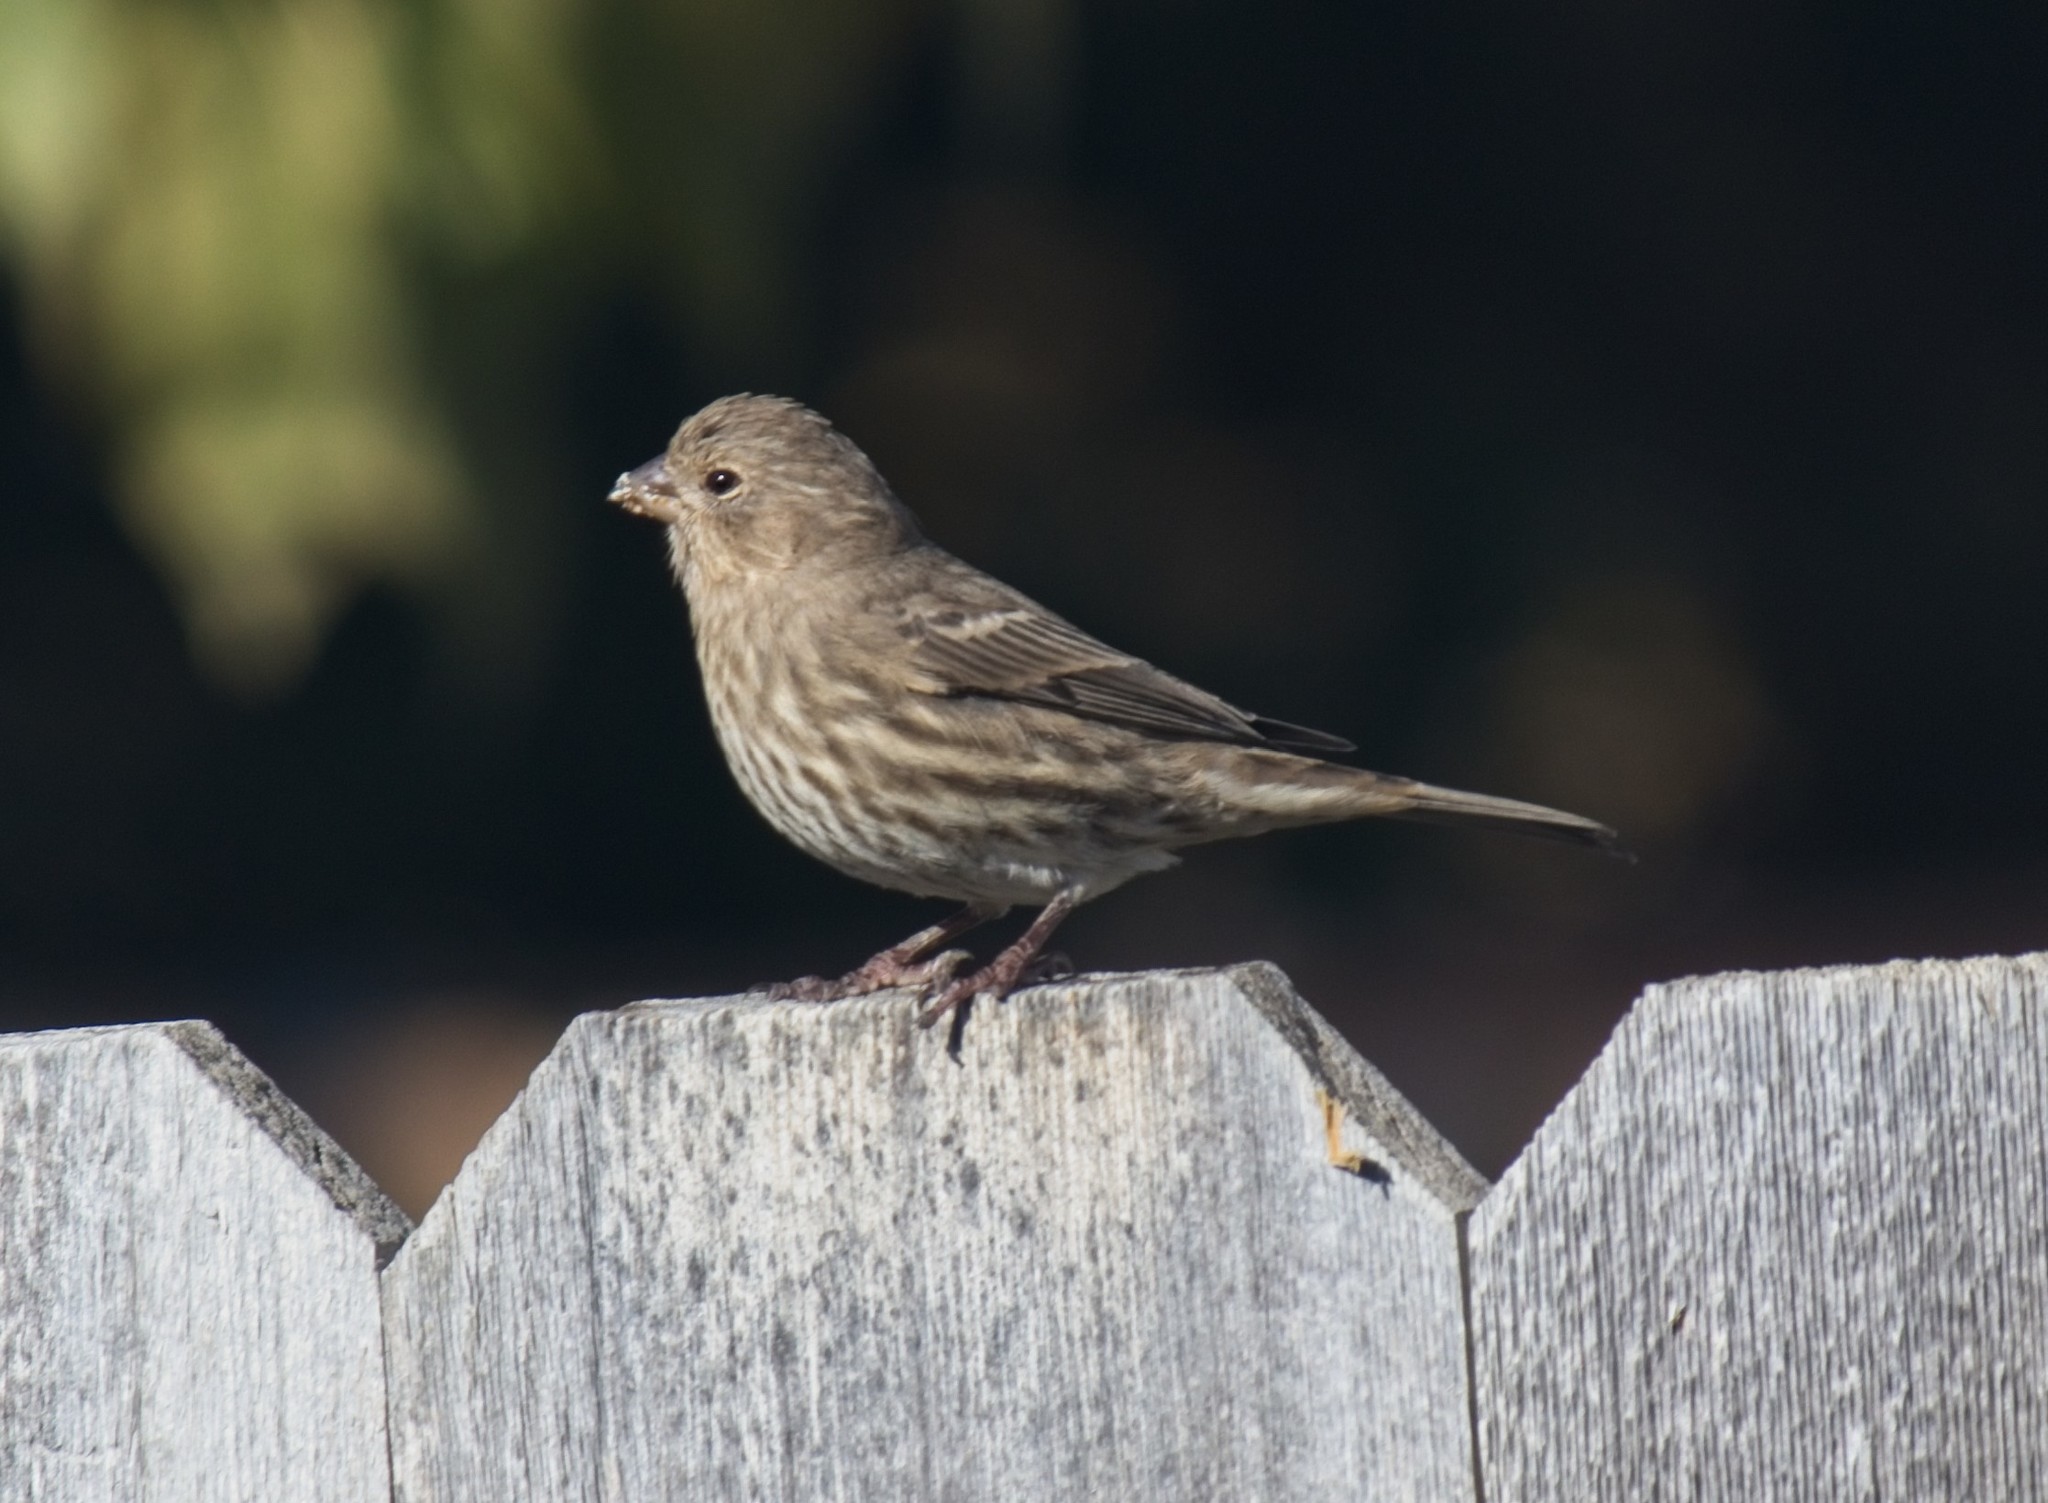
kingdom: Animalia
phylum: Chordata
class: Aves
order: Passeriformes
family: Fringillidae
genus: Haemorhous
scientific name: Haemorhous mexicanus
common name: House finch
